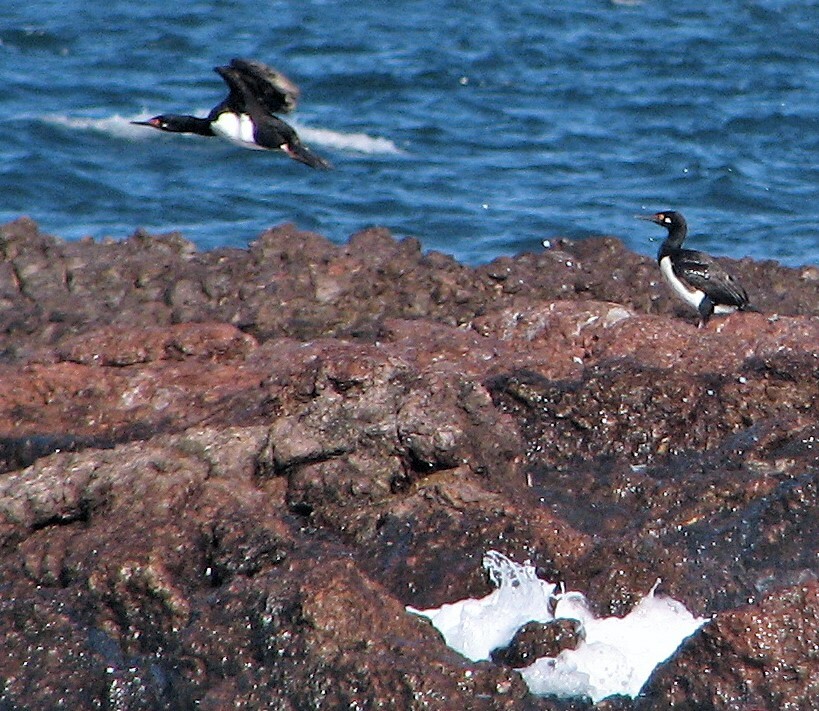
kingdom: Animalia
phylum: Chordata
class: Aves
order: Suliformes
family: Phalacrocoracidae
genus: Phalacrocorax
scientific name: Phalacrocorax magellanicus
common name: Rock shag
